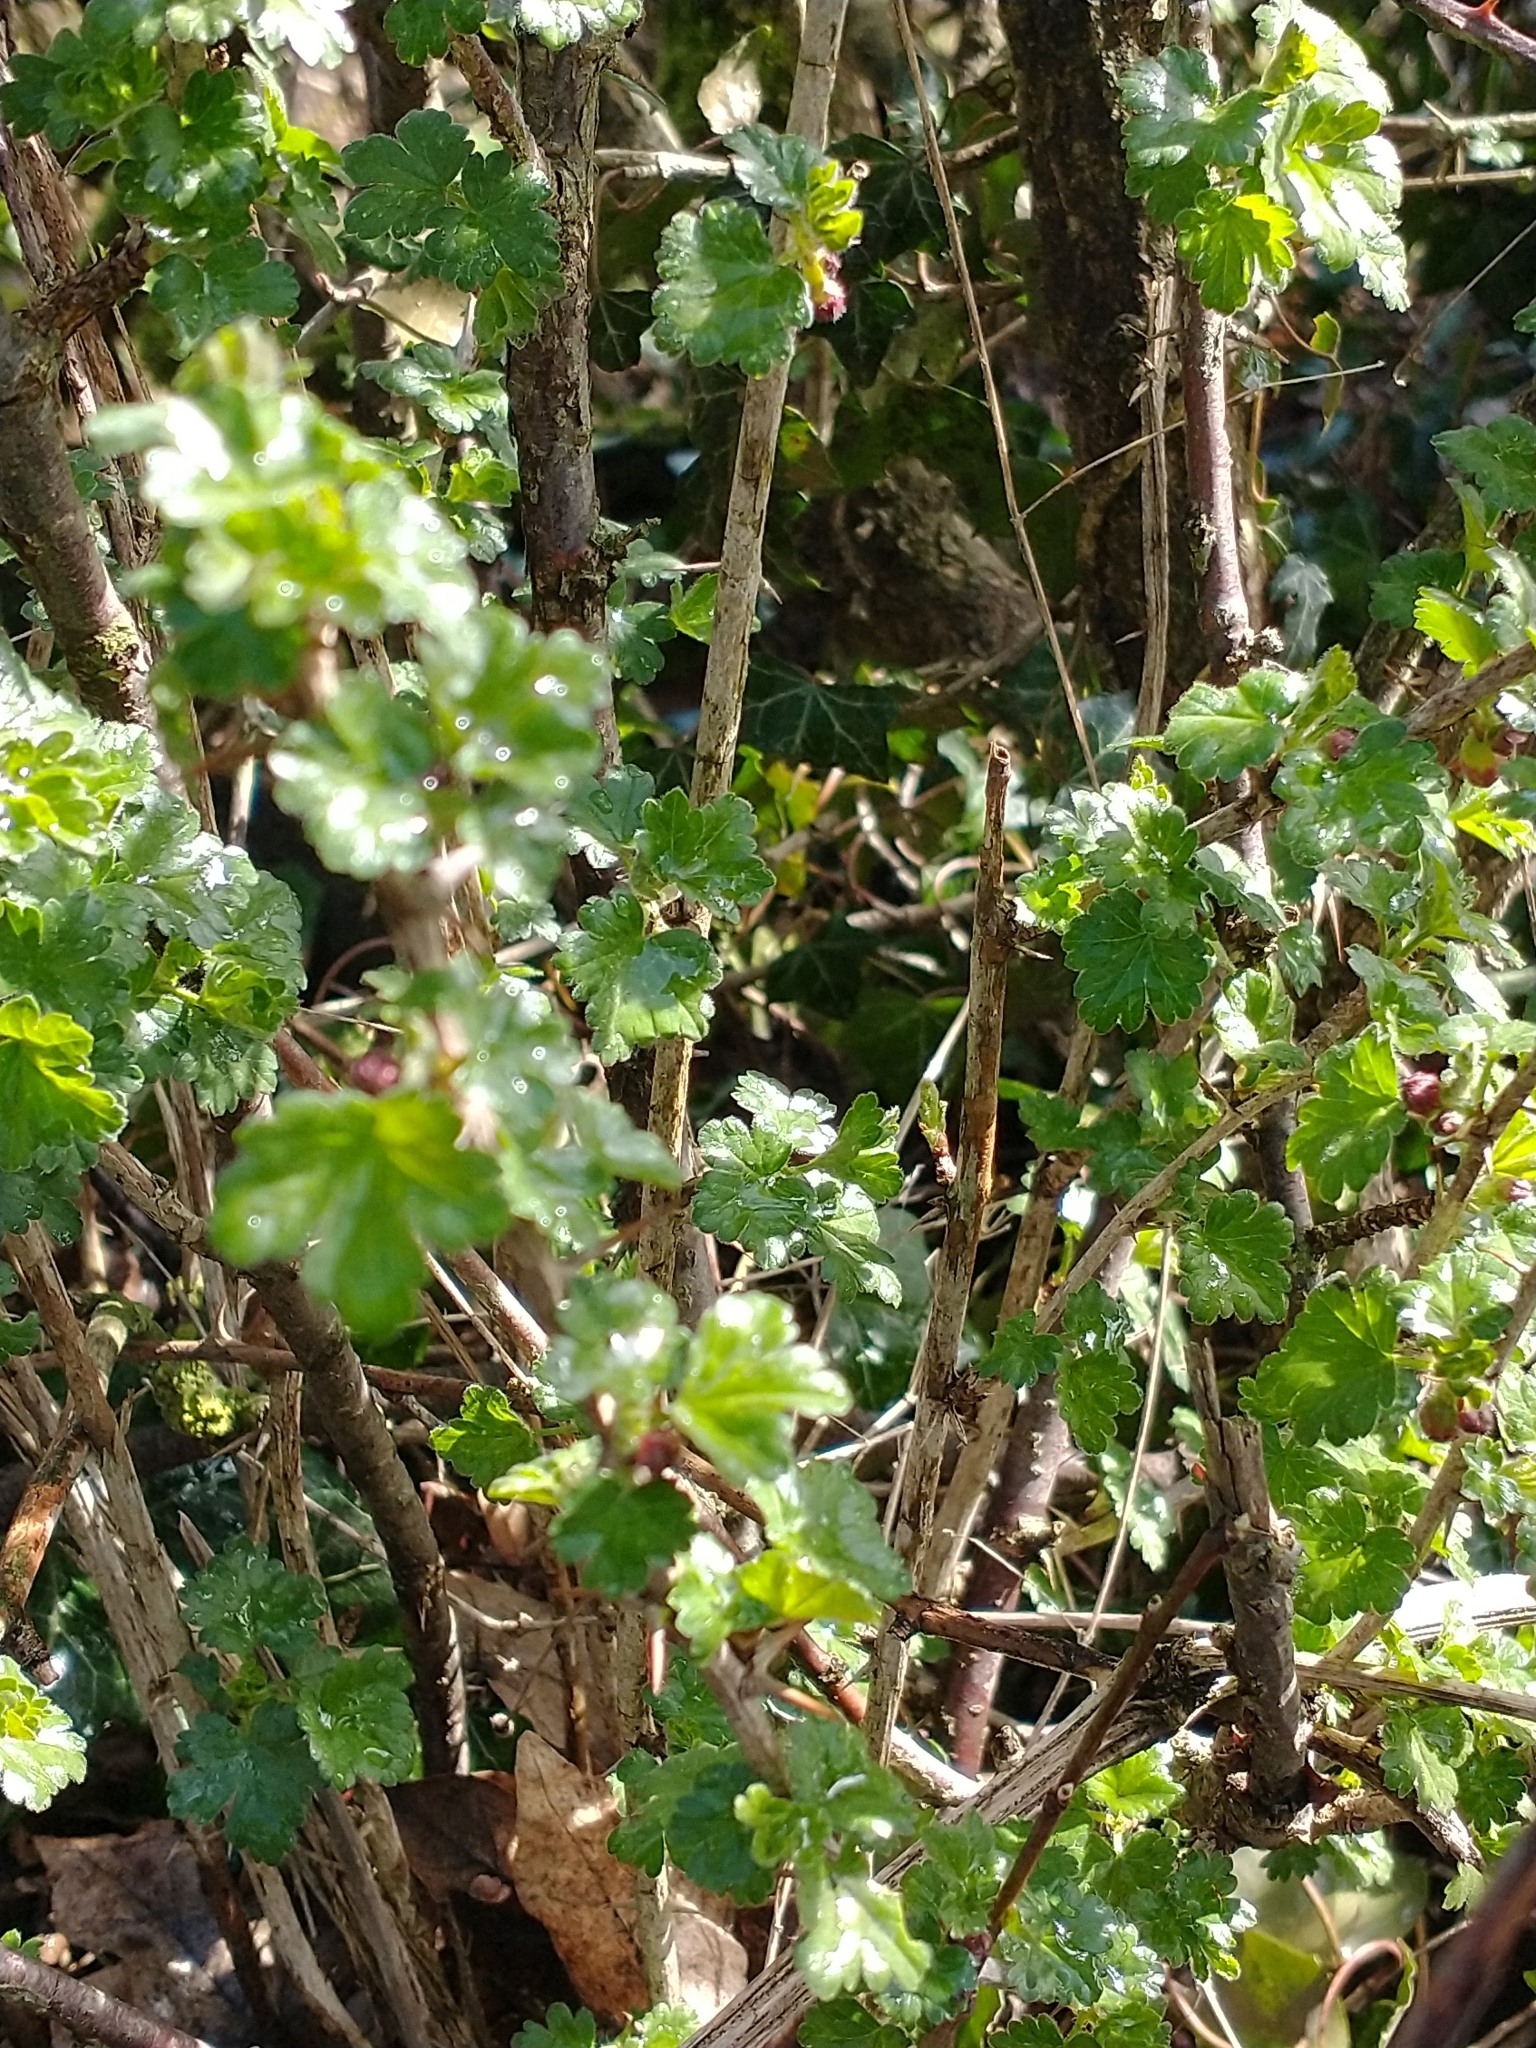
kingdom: Plantae
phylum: Tracheophyta
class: Magnoliopsida
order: Saxifragales
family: Grossulariaceae
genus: Ribes
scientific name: Ribes uva-crispa
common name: Gooseberry
